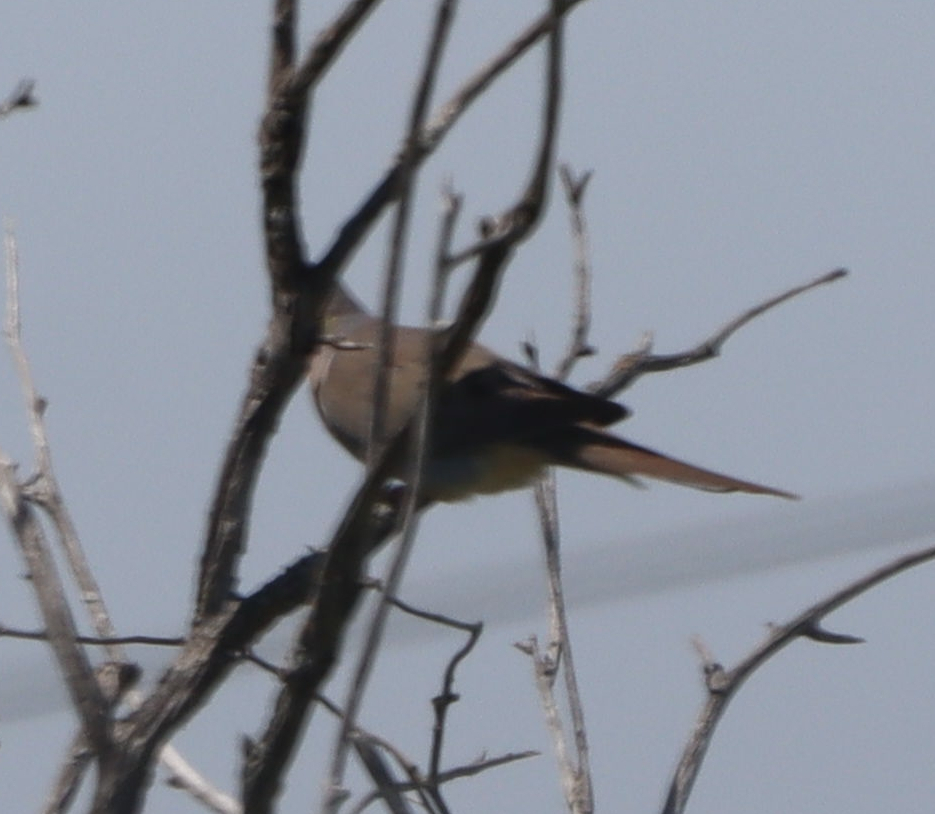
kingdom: Animalia
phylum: Chordata
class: Aves
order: Columbiformes
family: Columbidae
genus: Zenaida
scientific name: Zenaida macroura
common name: Mourning dove
